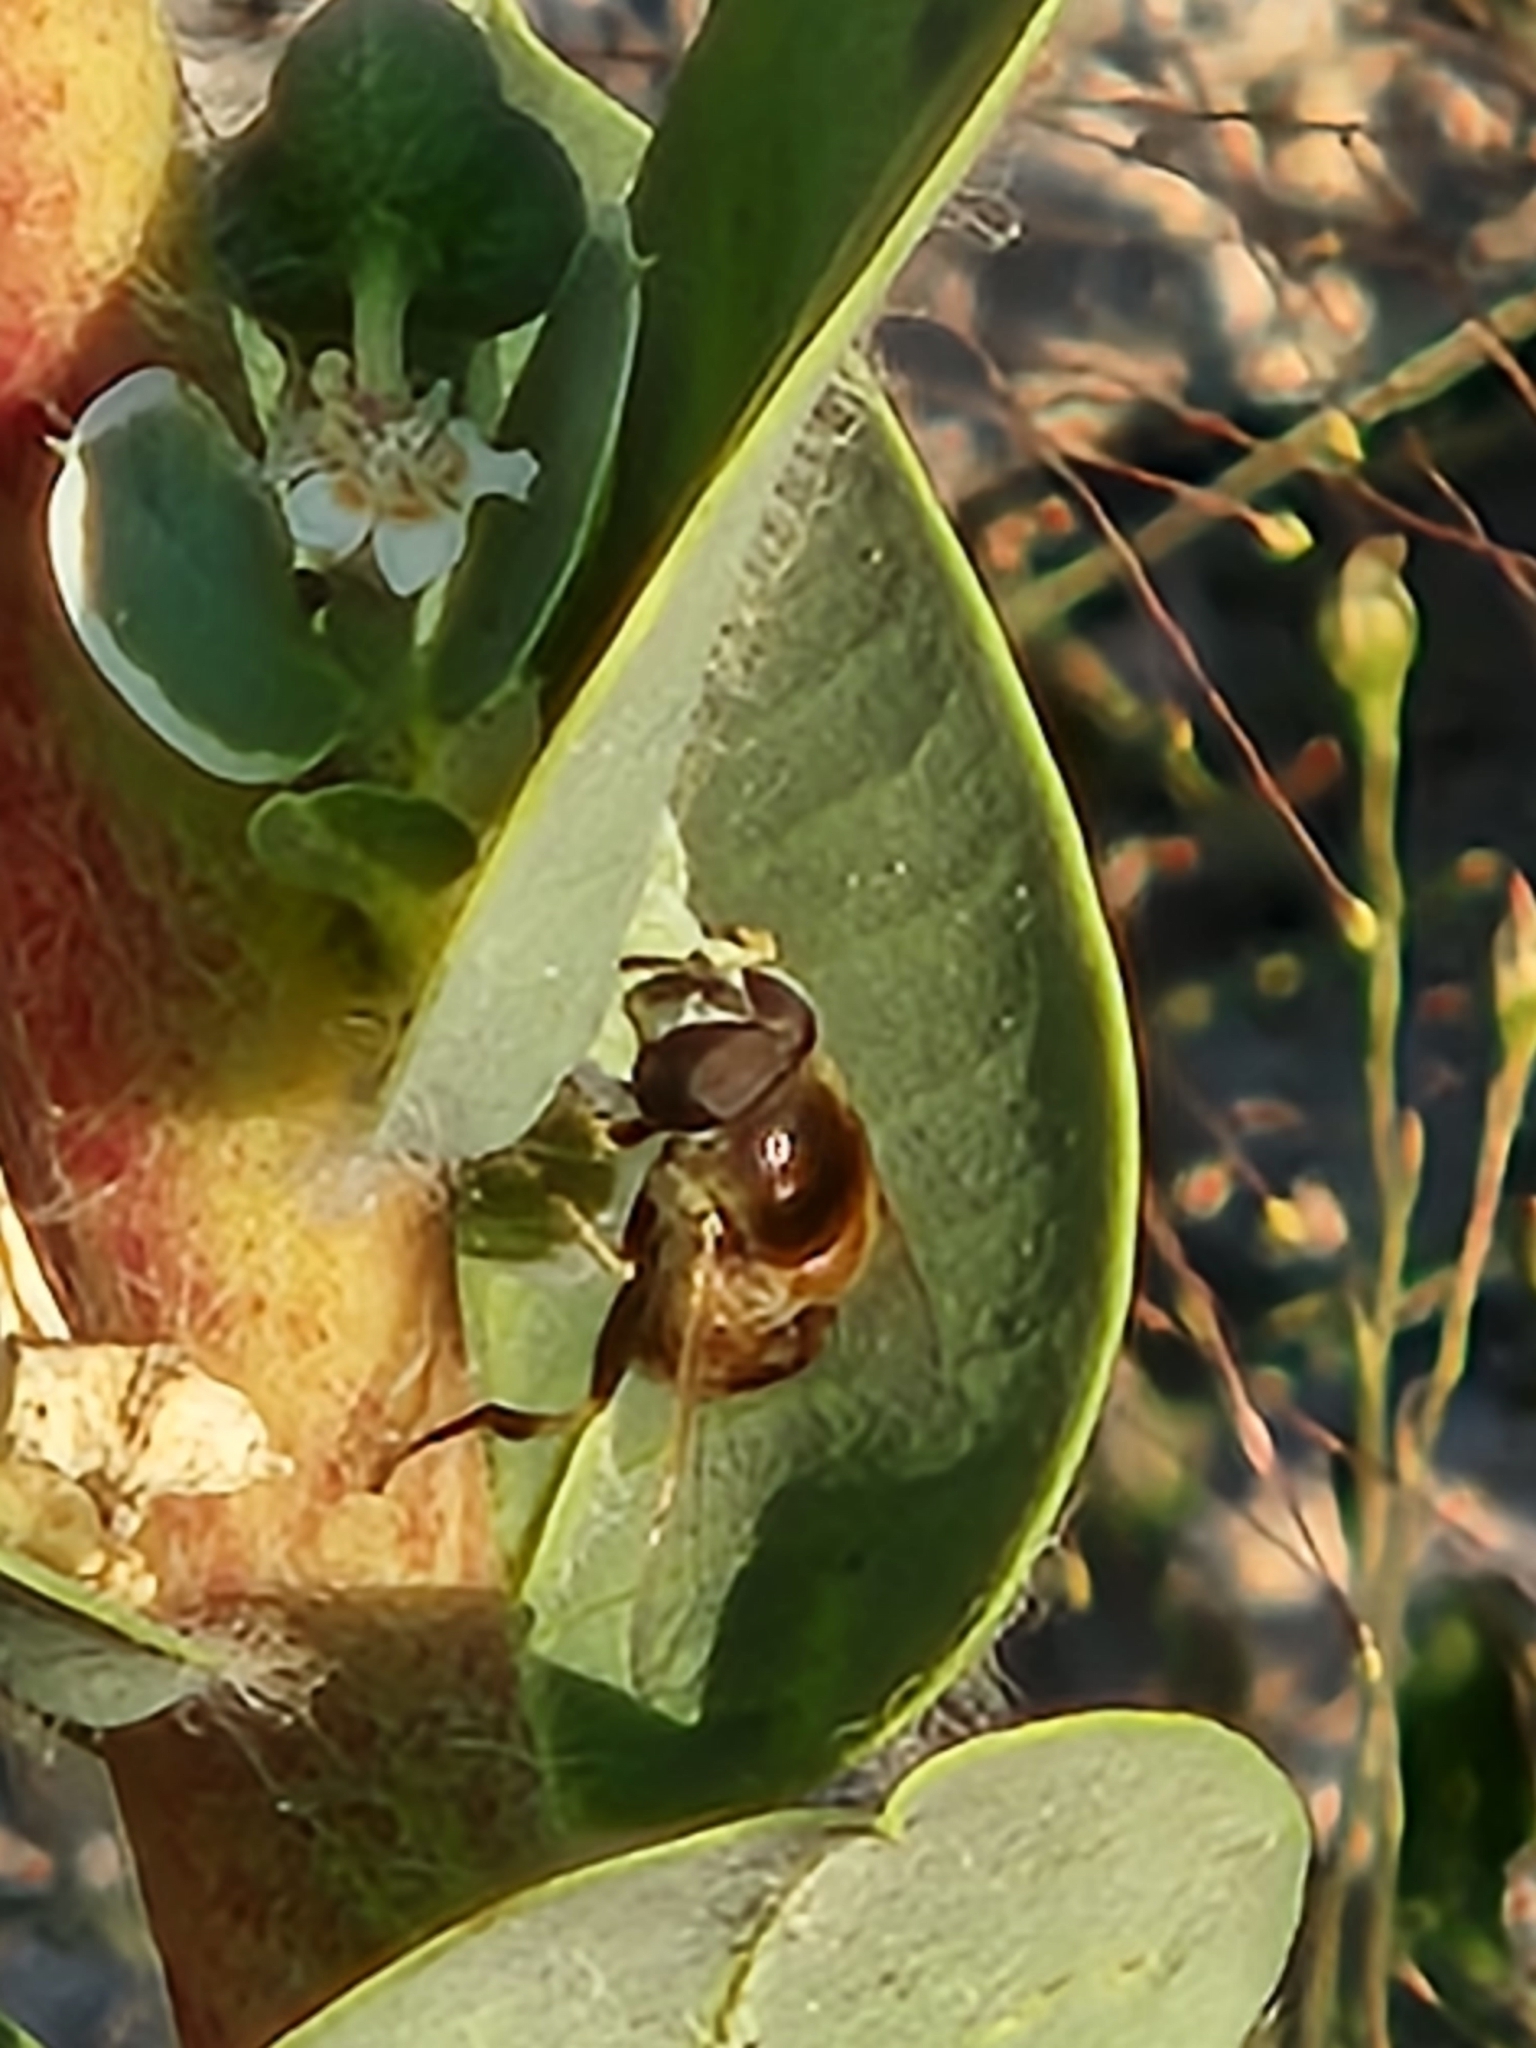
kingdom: Animalia
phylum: Arthropoda
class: Insecta
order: Diptera
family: Syrphidae
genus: Eristalis
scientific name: Eristalis stipator
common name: Yellow-shouldered drone fly
